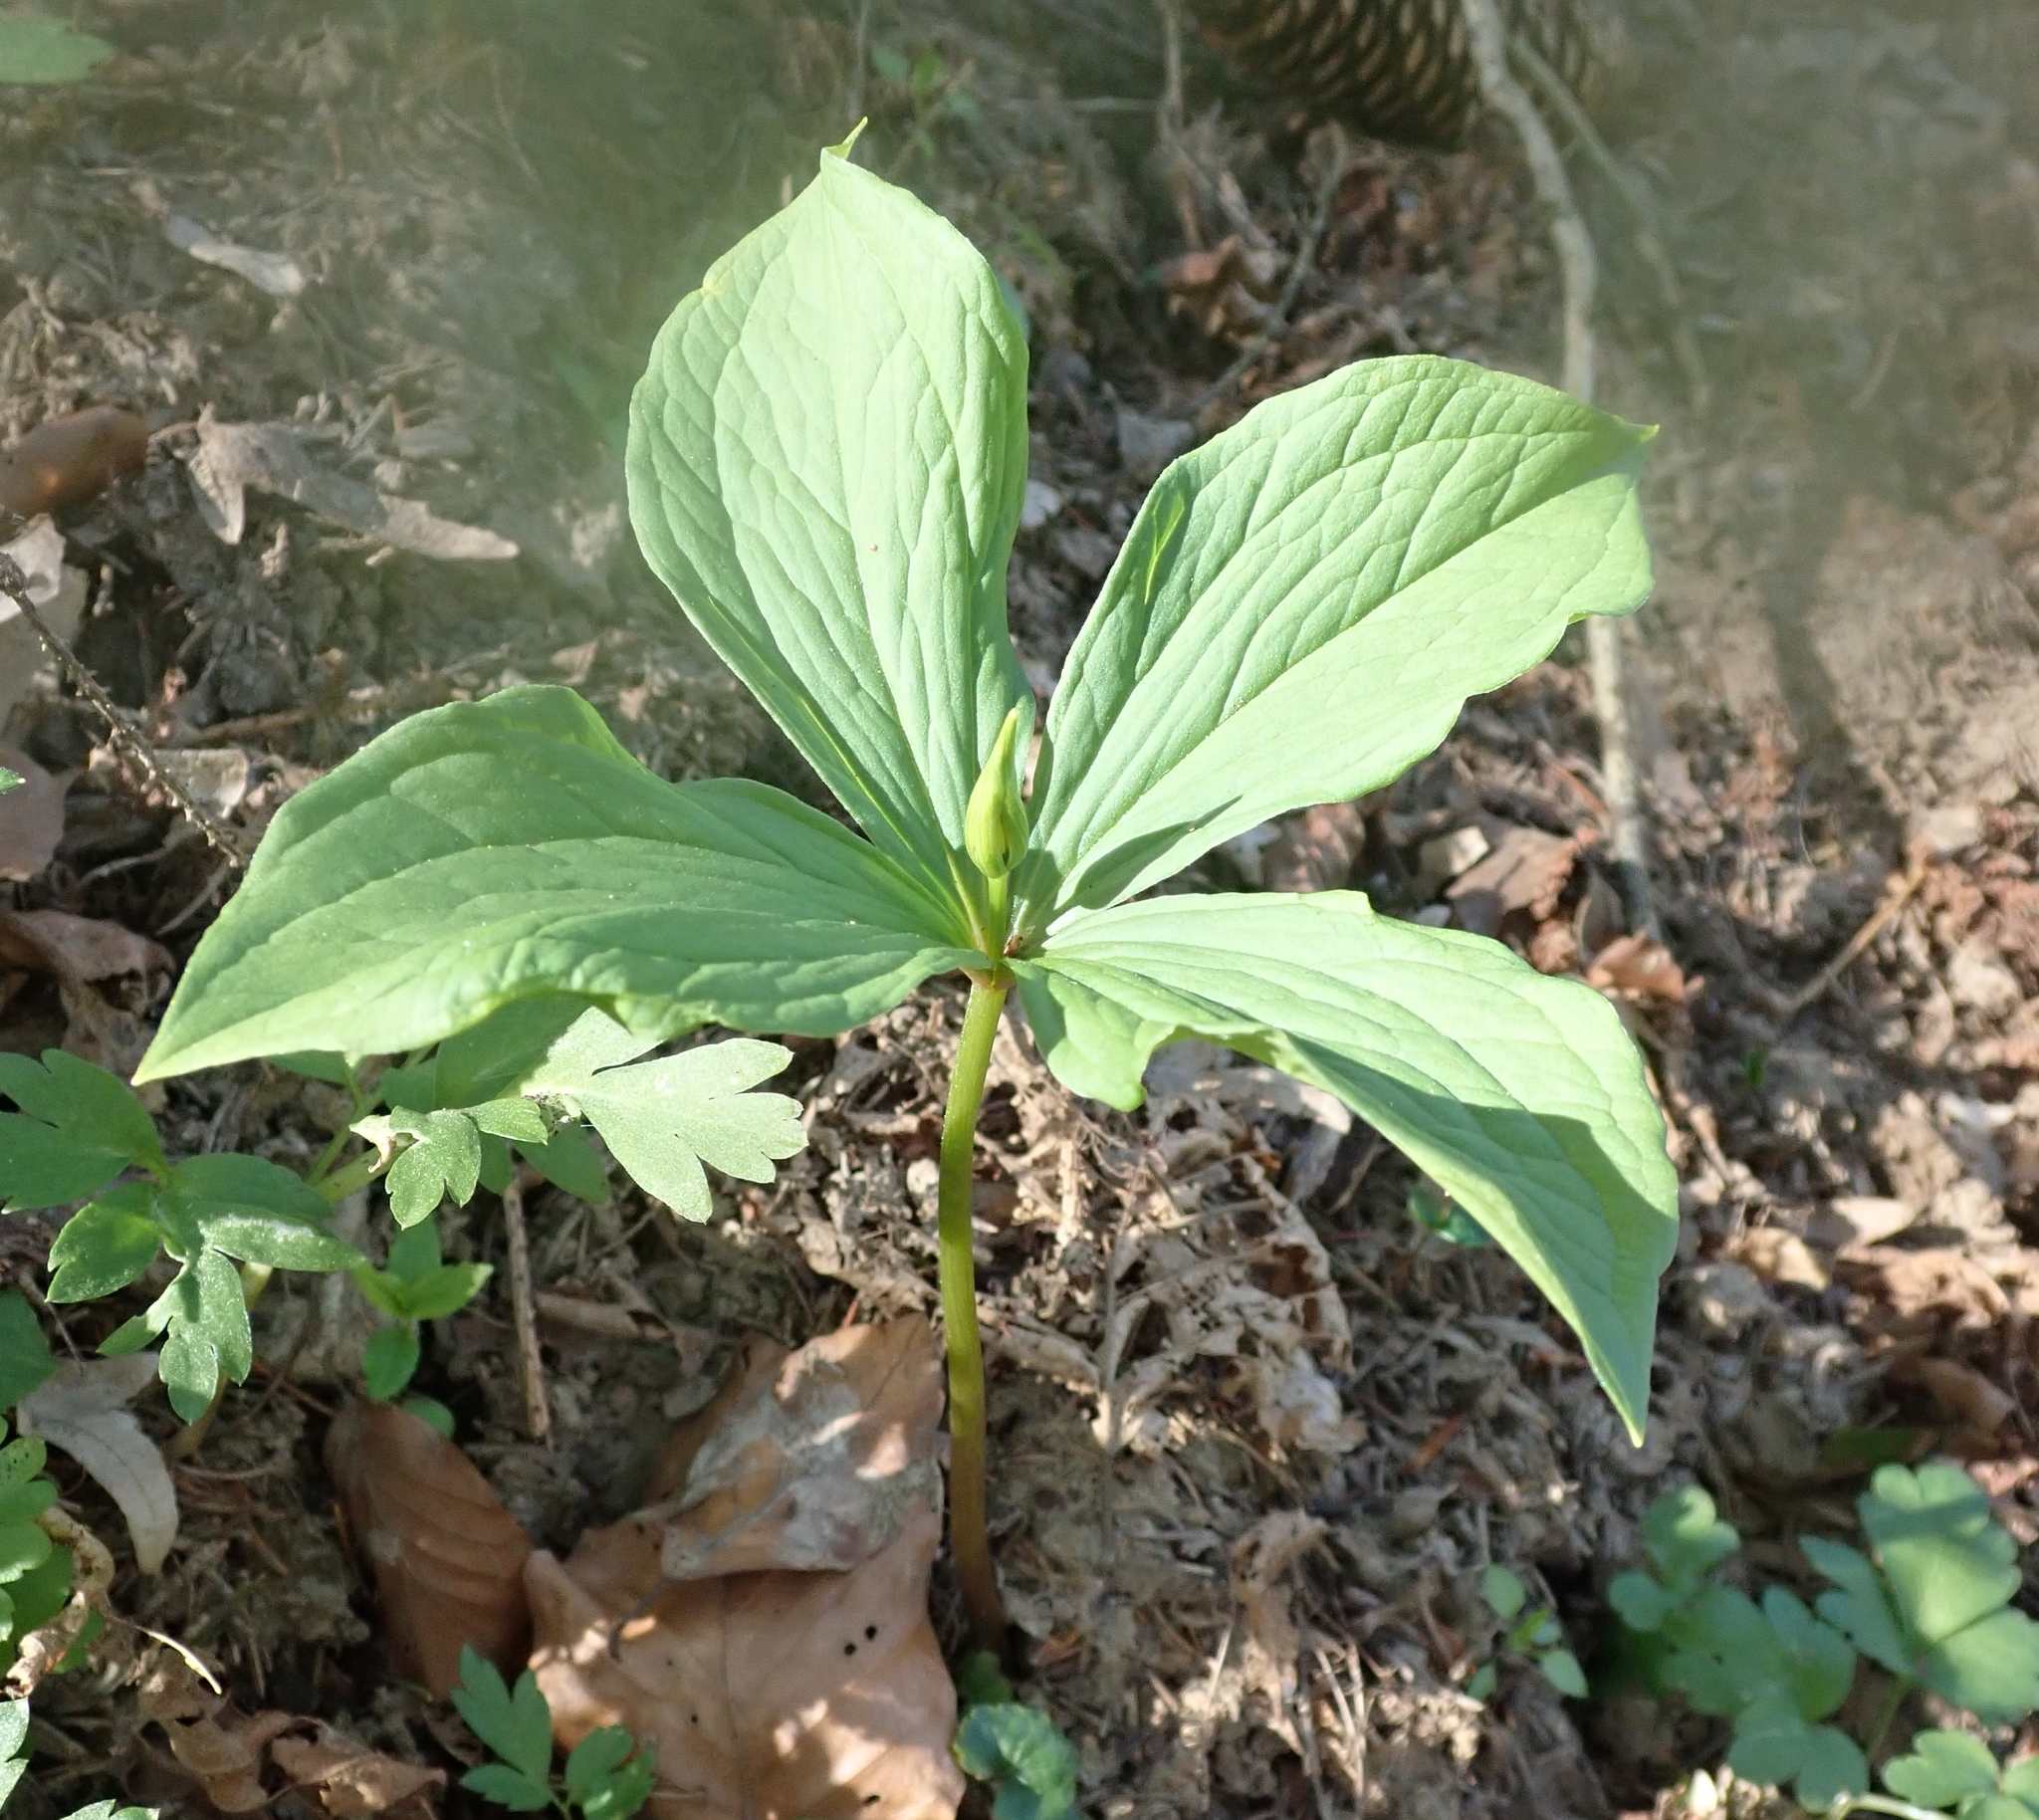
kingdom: Plantae
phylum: Tracheophyta
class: Liliopsida
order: Liliales
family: Melanthiaceae
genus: Paris
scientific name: Paris quadrifolia
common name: Herb-paris
